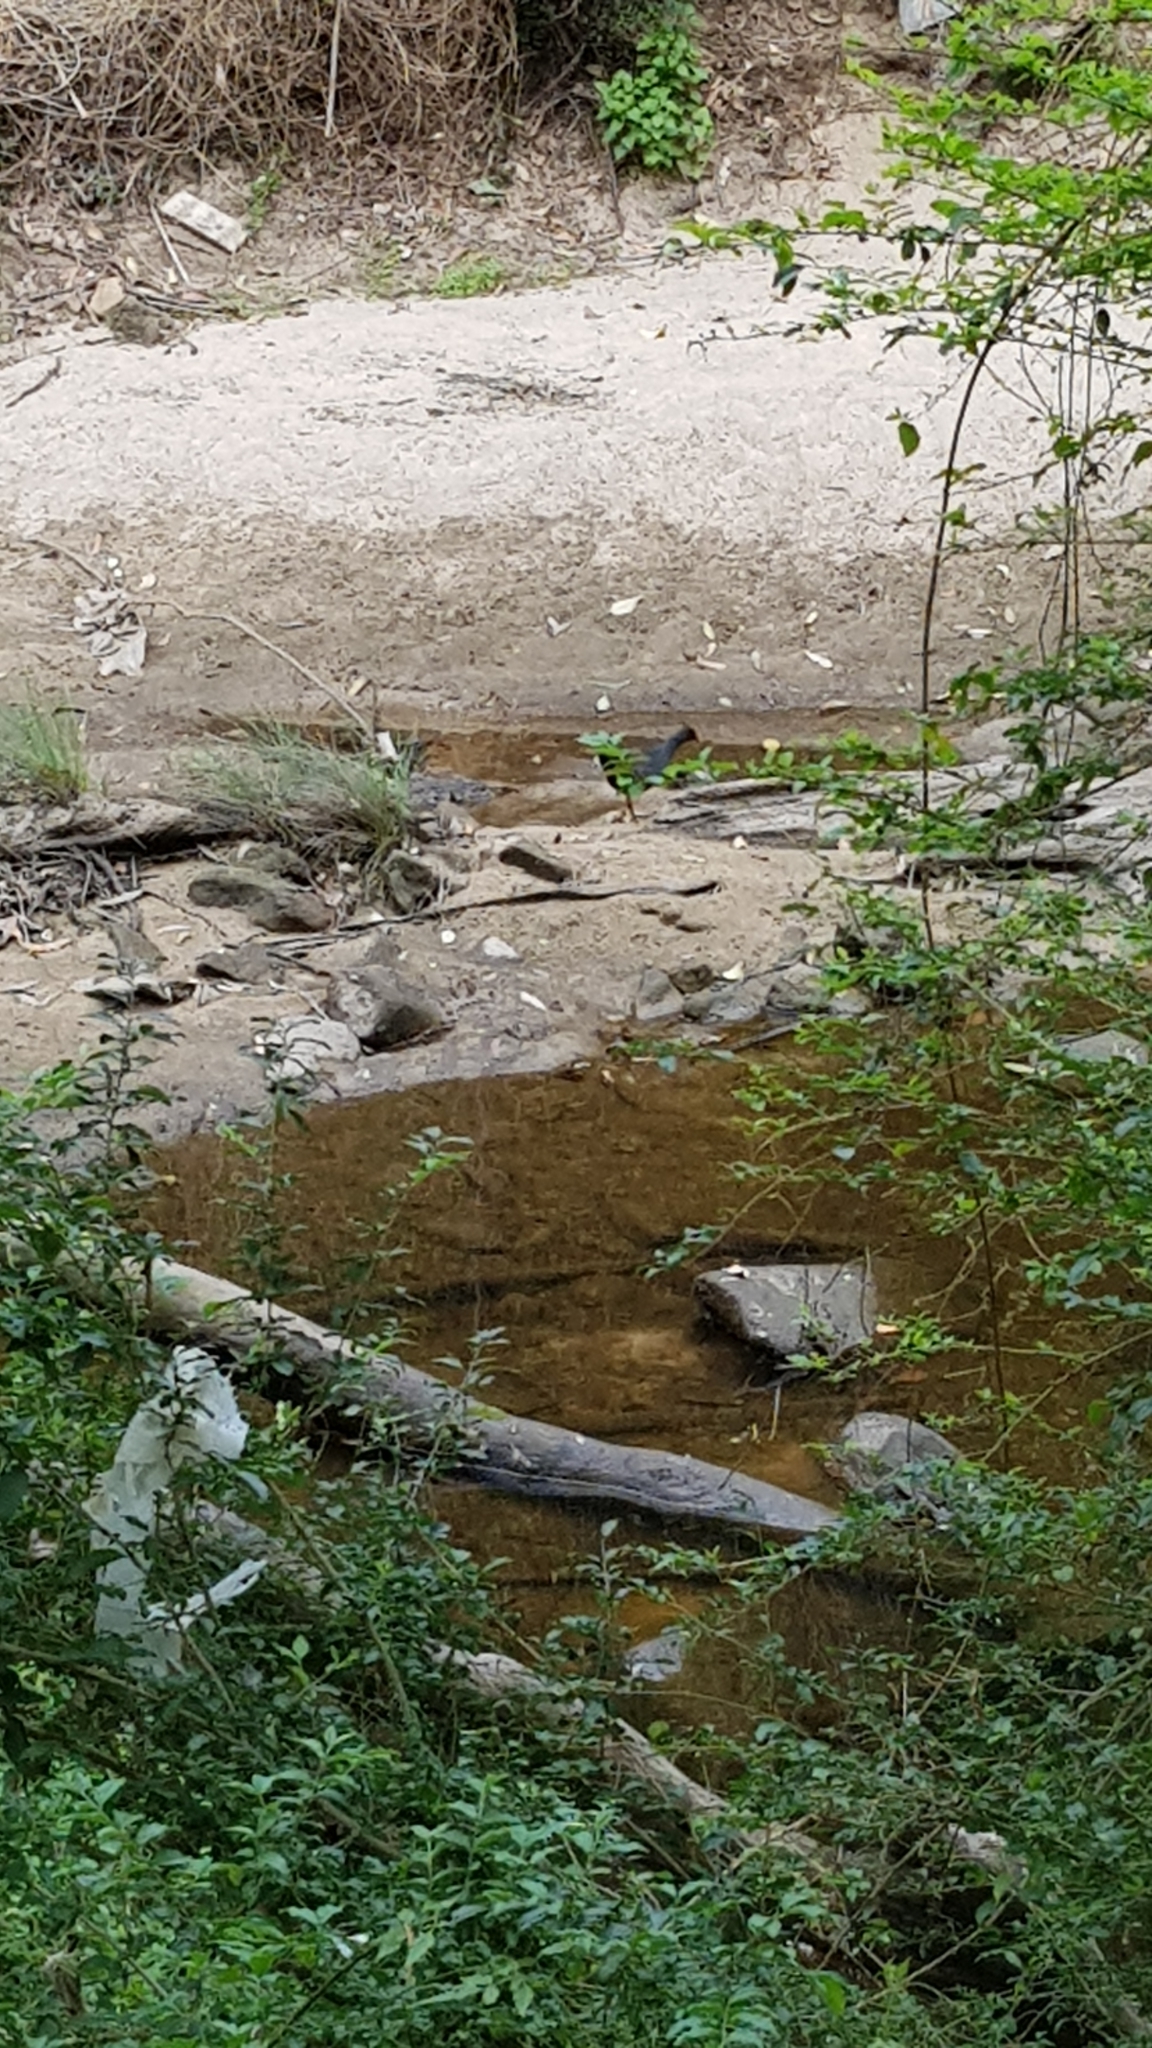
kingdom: Animalia
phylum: Chordata
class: Aves
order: Gruiformes
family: Rallidae
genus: Gallinula
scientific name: Gallinula tenebrosa
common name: Dusky moorhen
